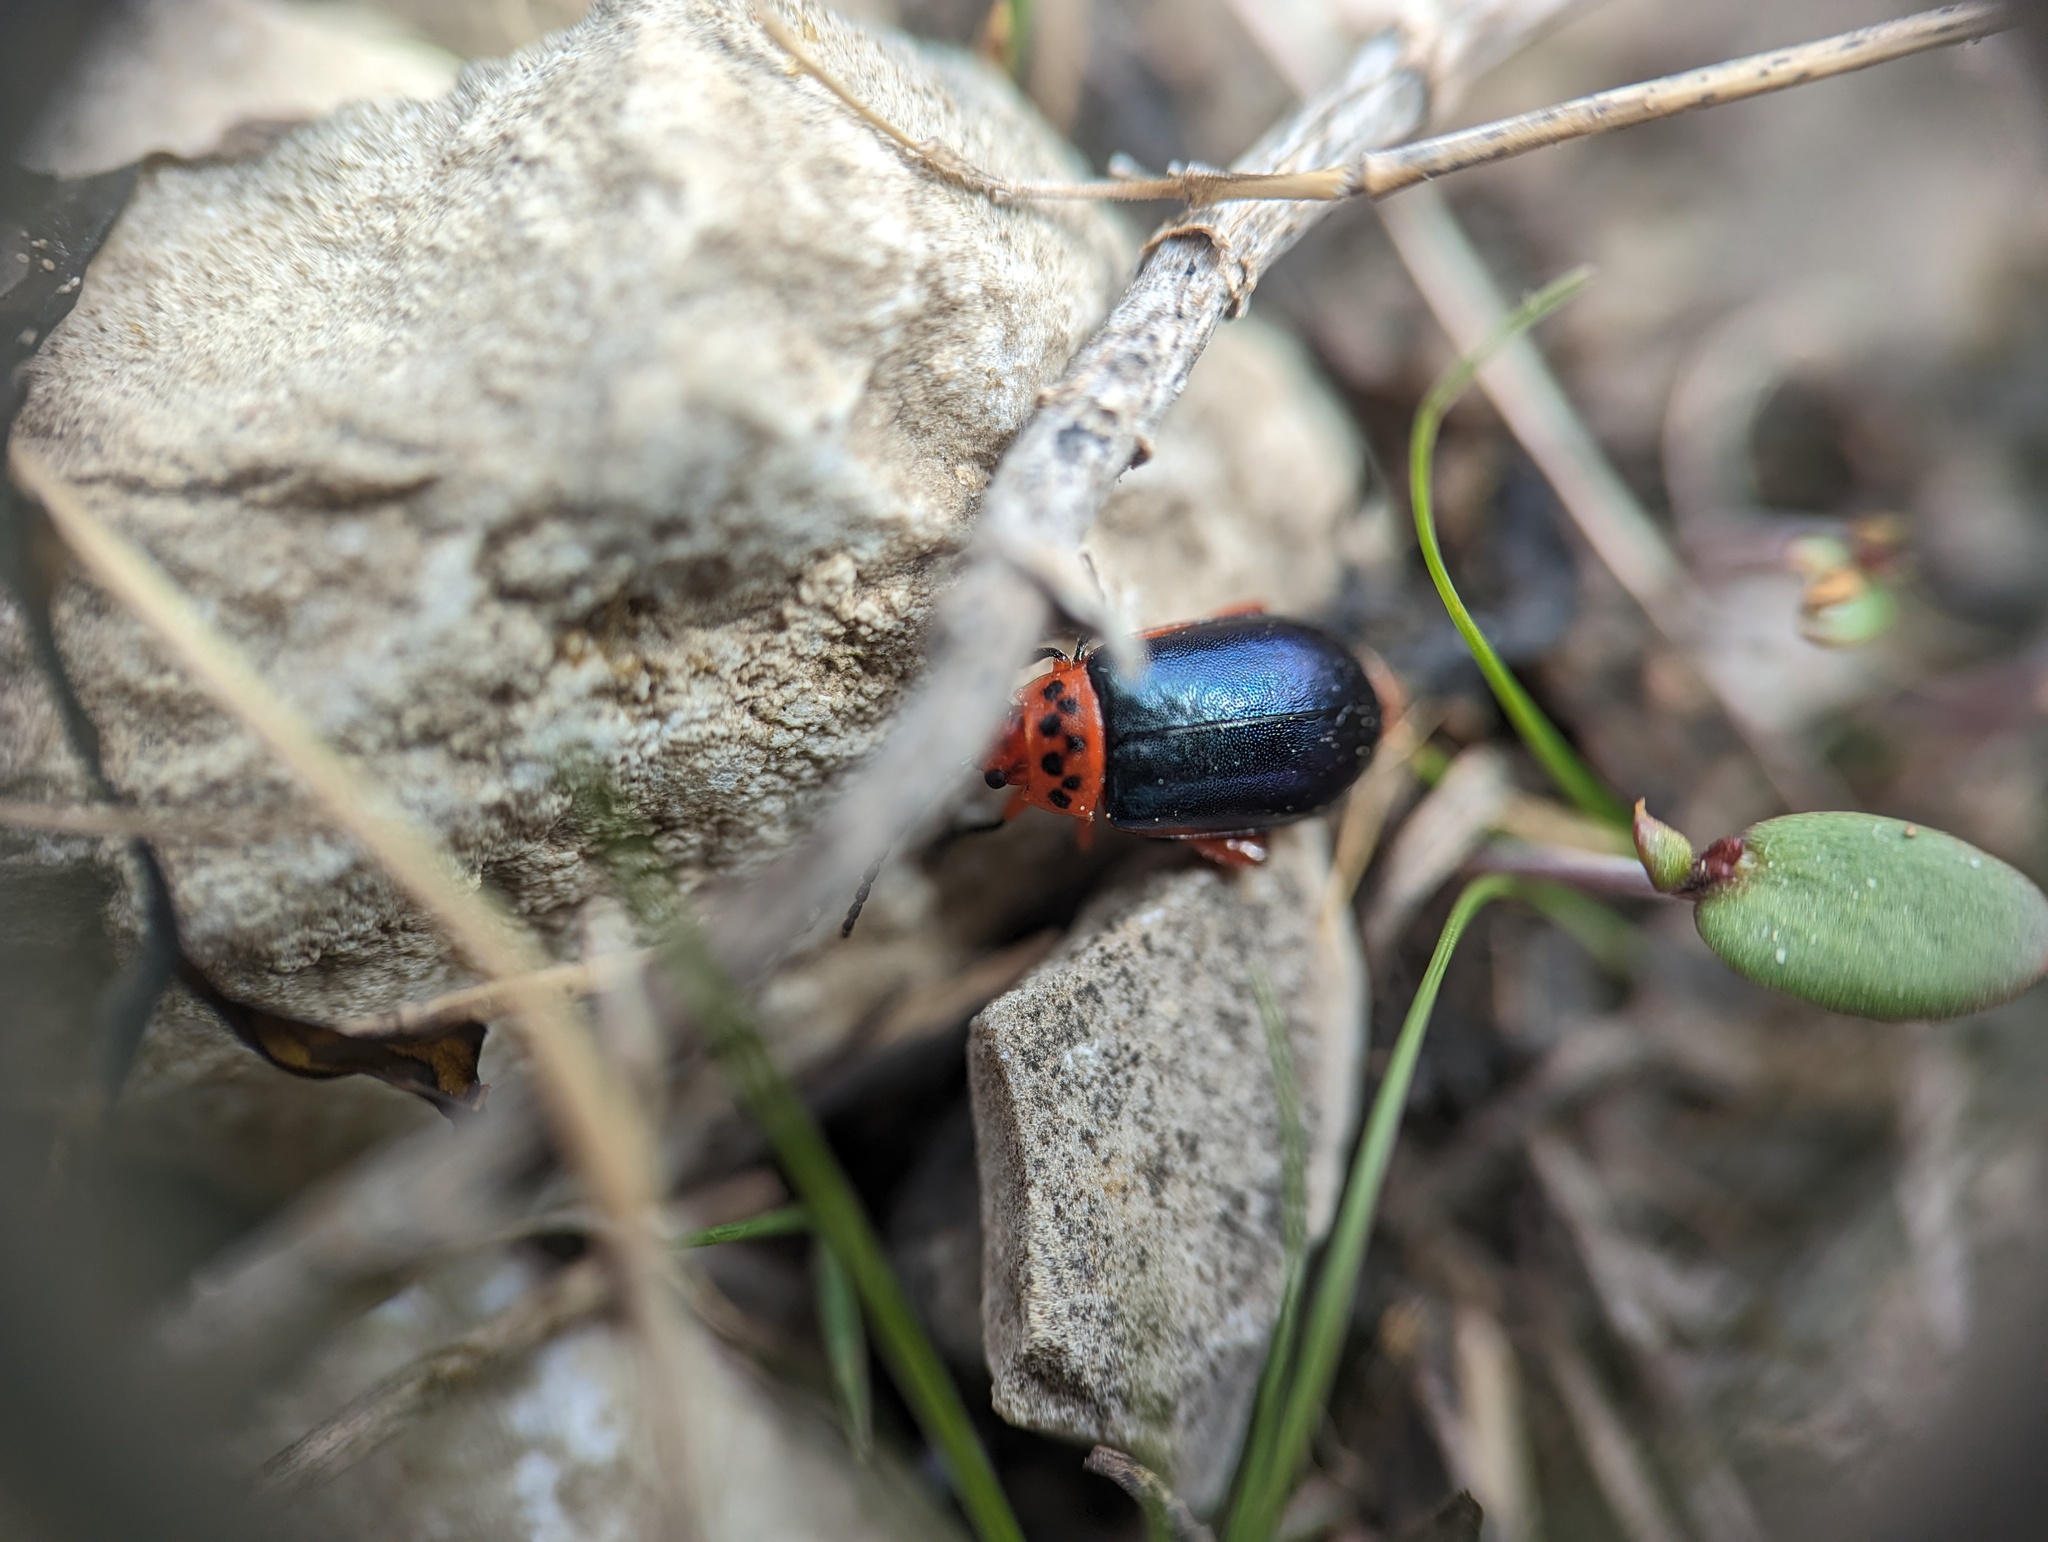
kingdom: Animalia
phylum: Arthropoda
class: Insecta
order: Coleoptera
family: Chrysomelidae
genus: Kuschelina
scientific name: Kuschelina thoracica
